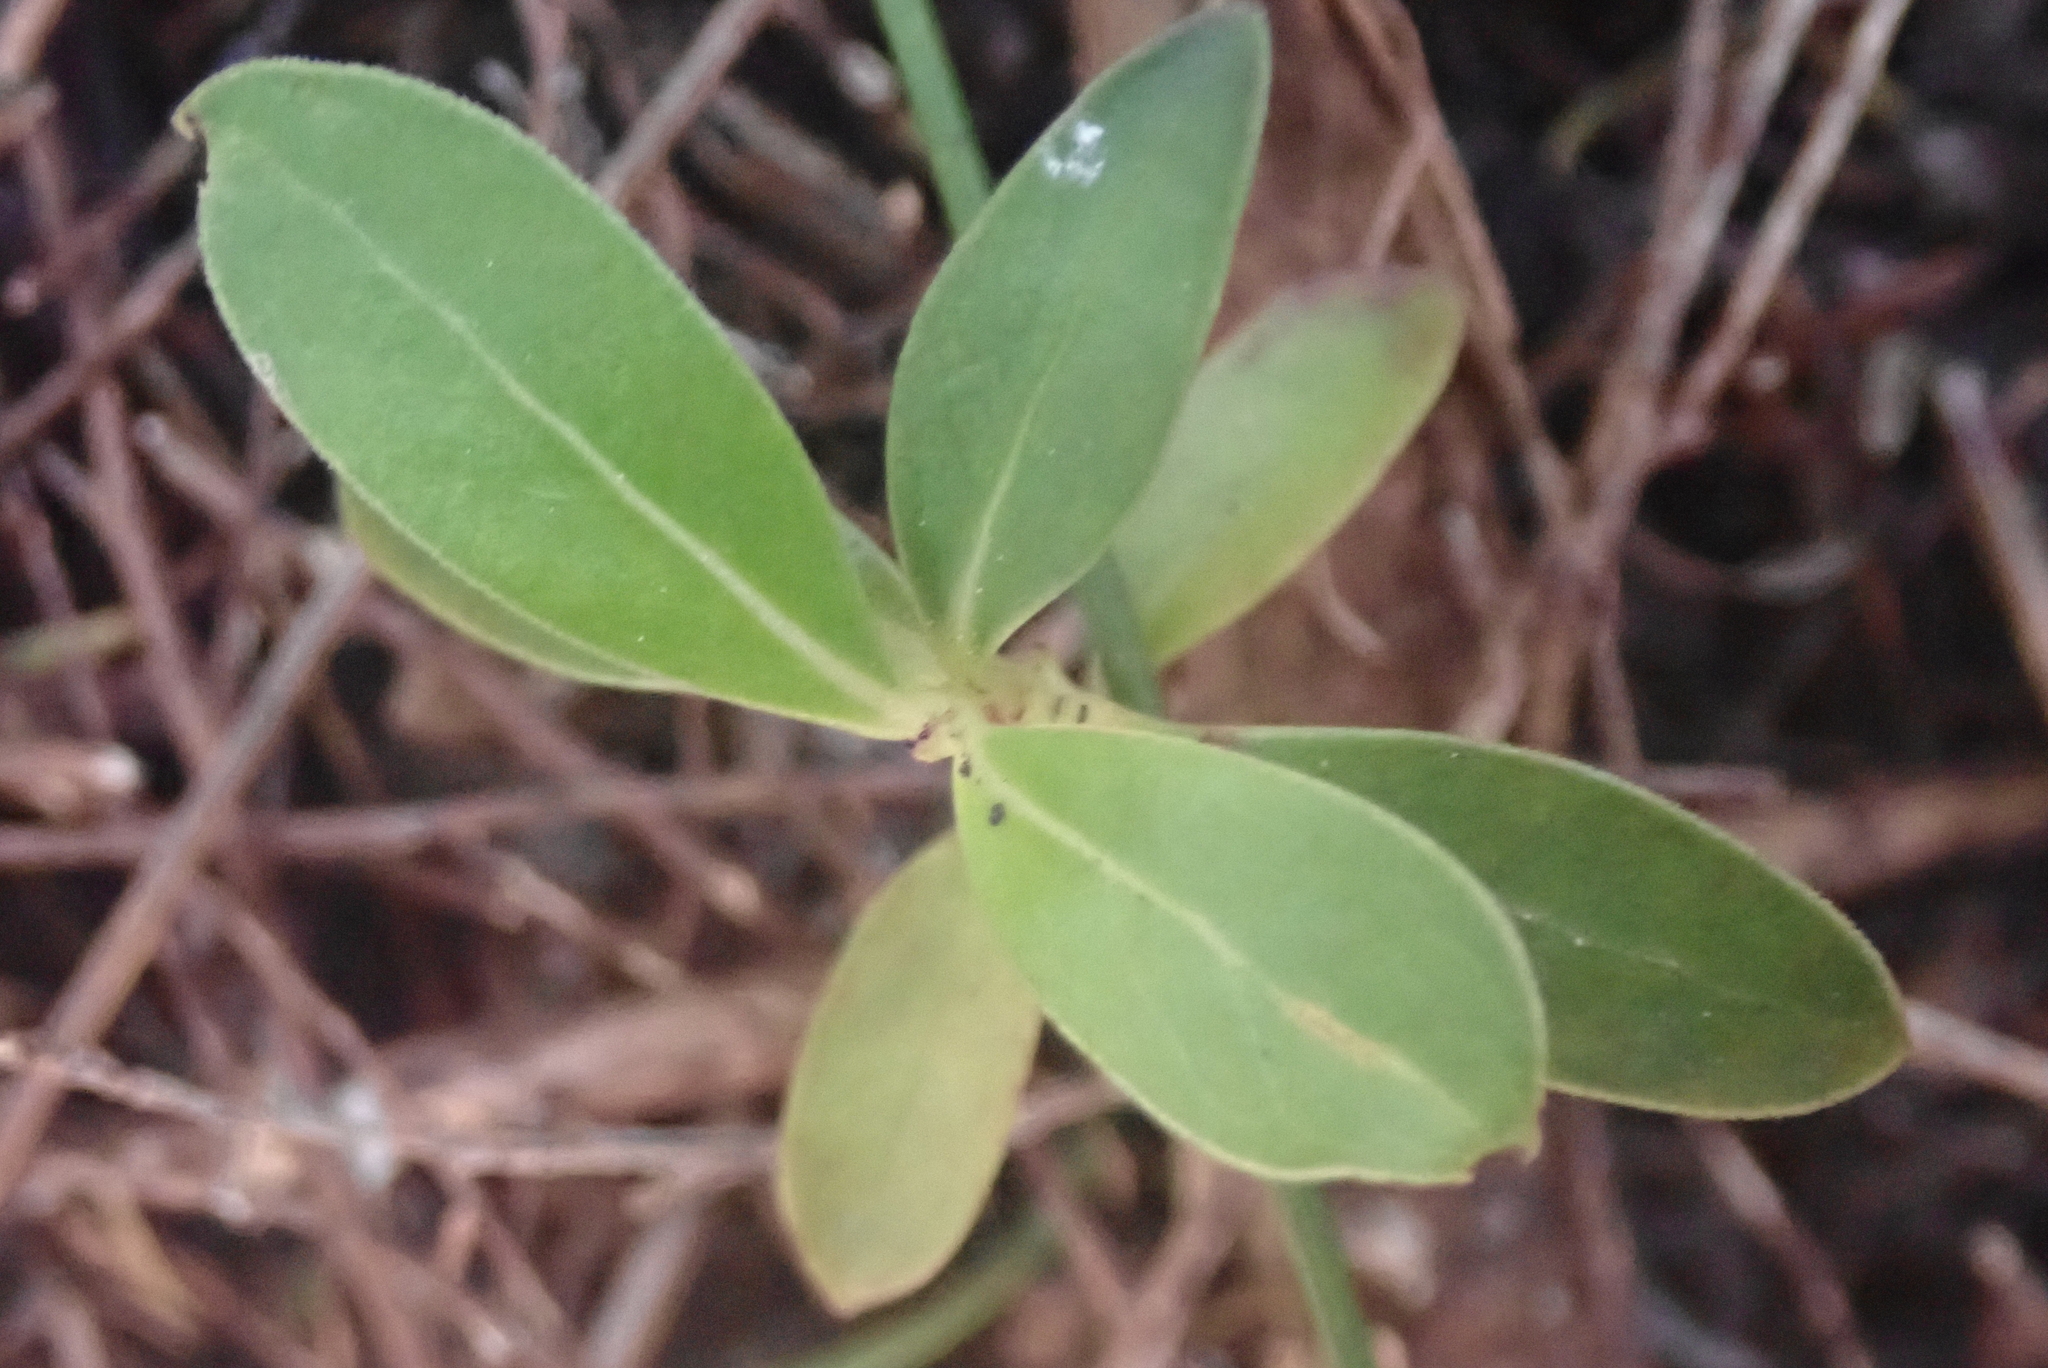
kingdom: Plantae
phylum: Tracheophyta
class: Magnoliopsida
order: Gentianales
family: Rubiaceae
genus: Coprosma
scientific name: Coprosma lucida
